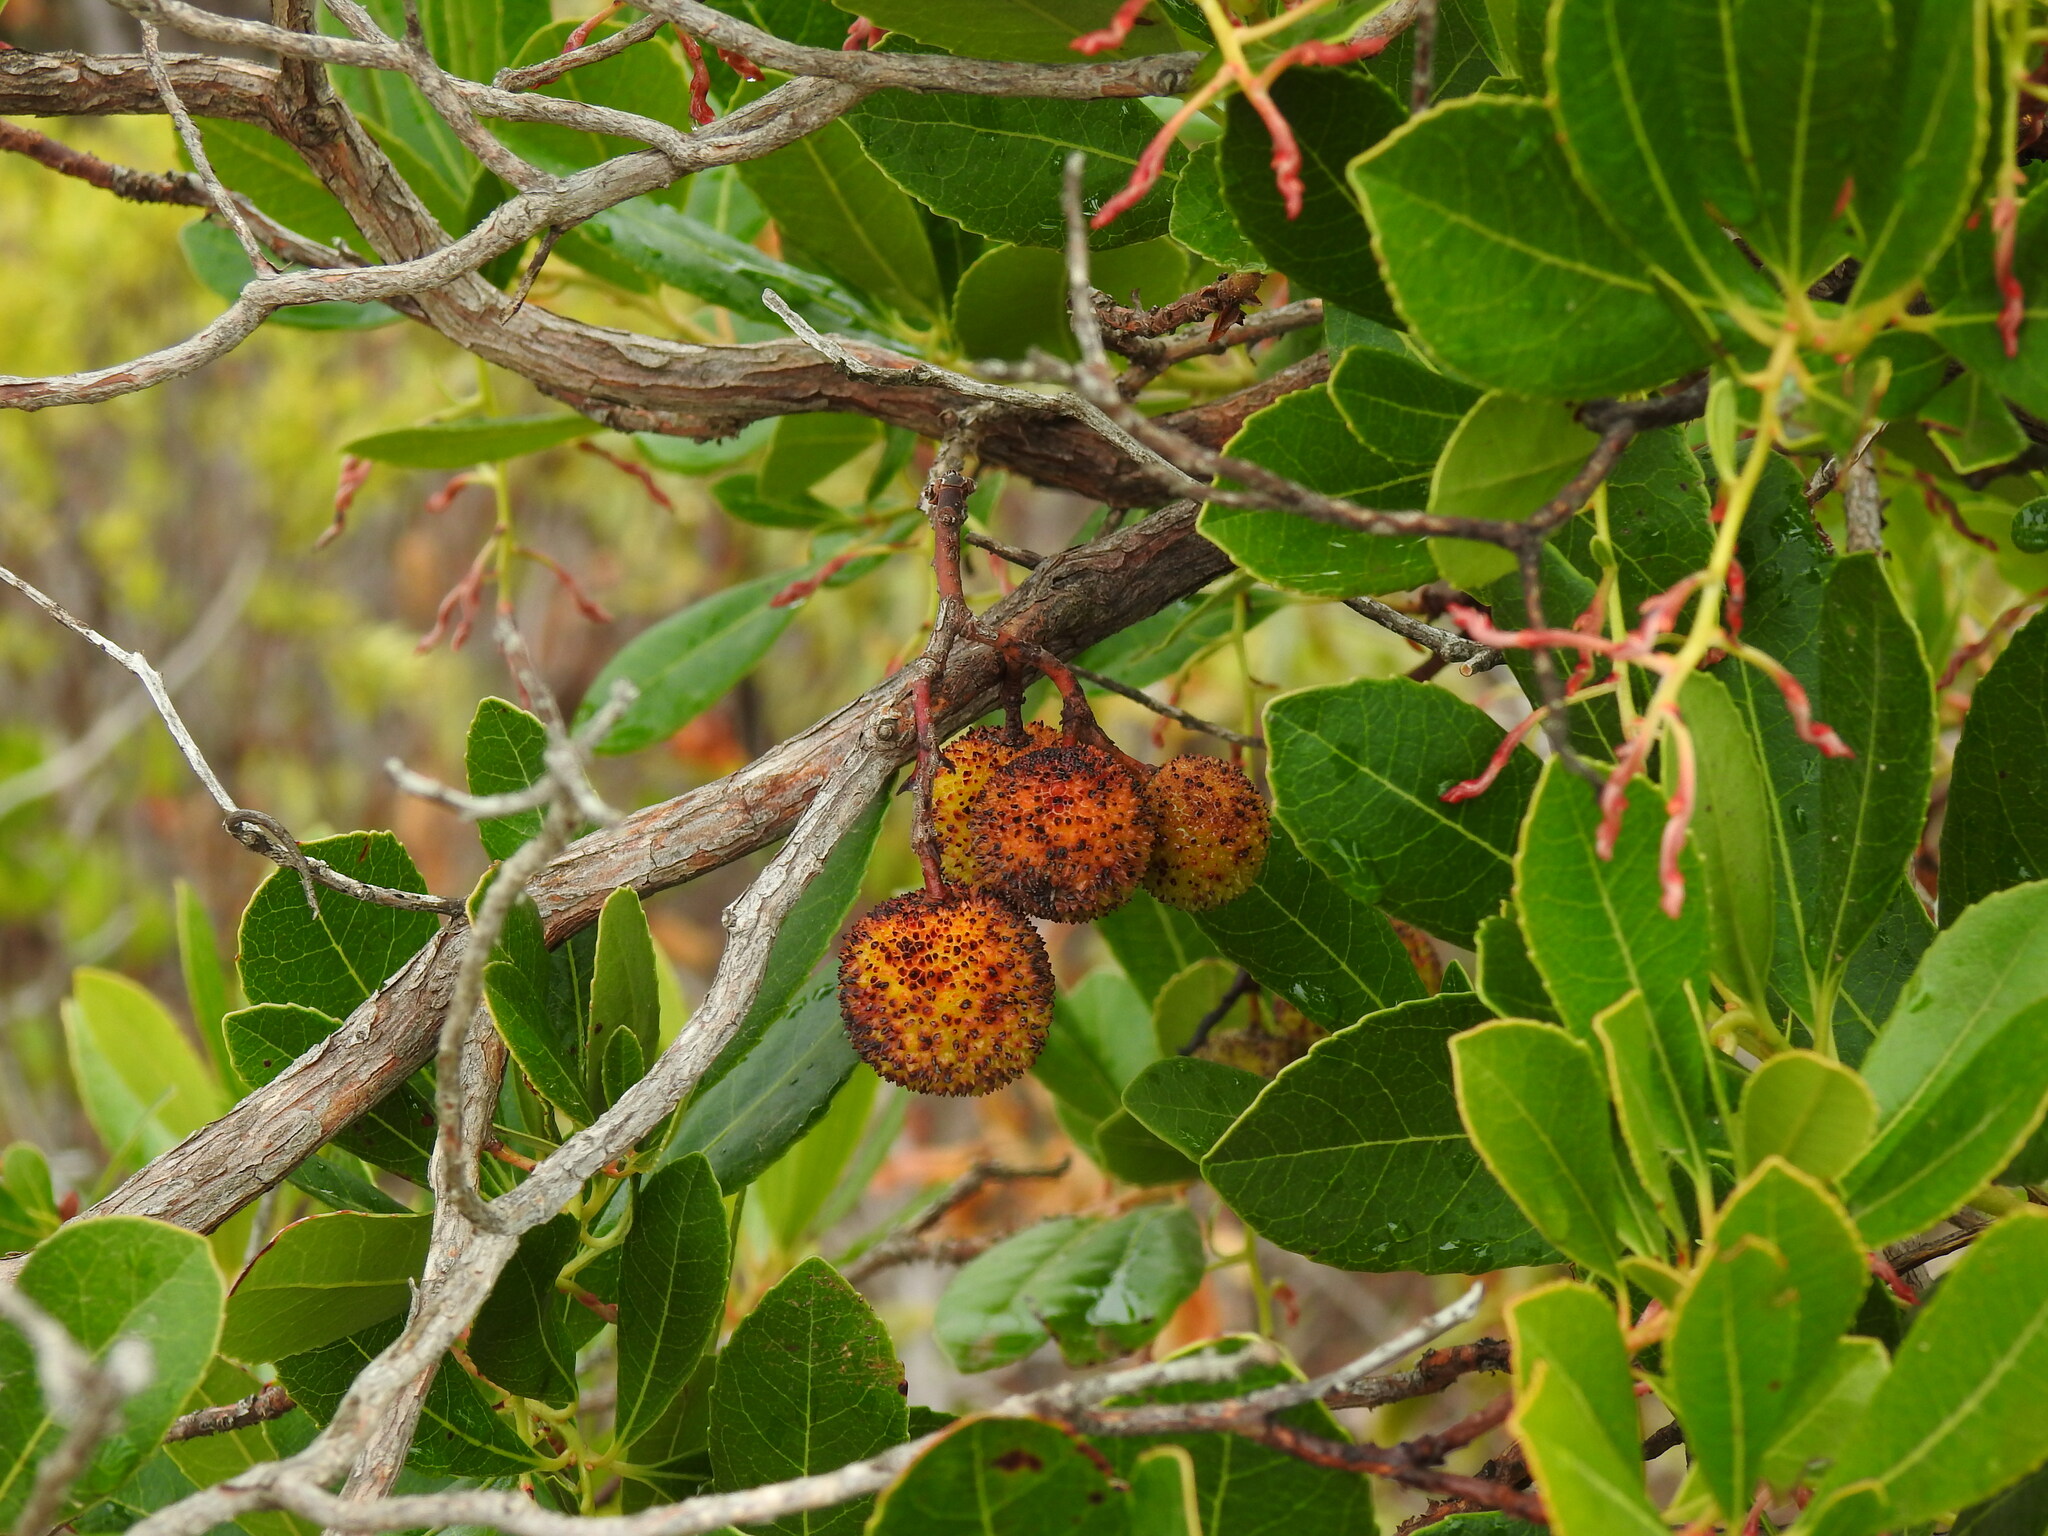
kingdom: Plantae
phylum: Tracheophyta
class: Magnoliopsida
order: Ericales
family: Ericaceae
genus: Arbutus
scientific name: Arbutus unedo
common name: Strawberry-tree
